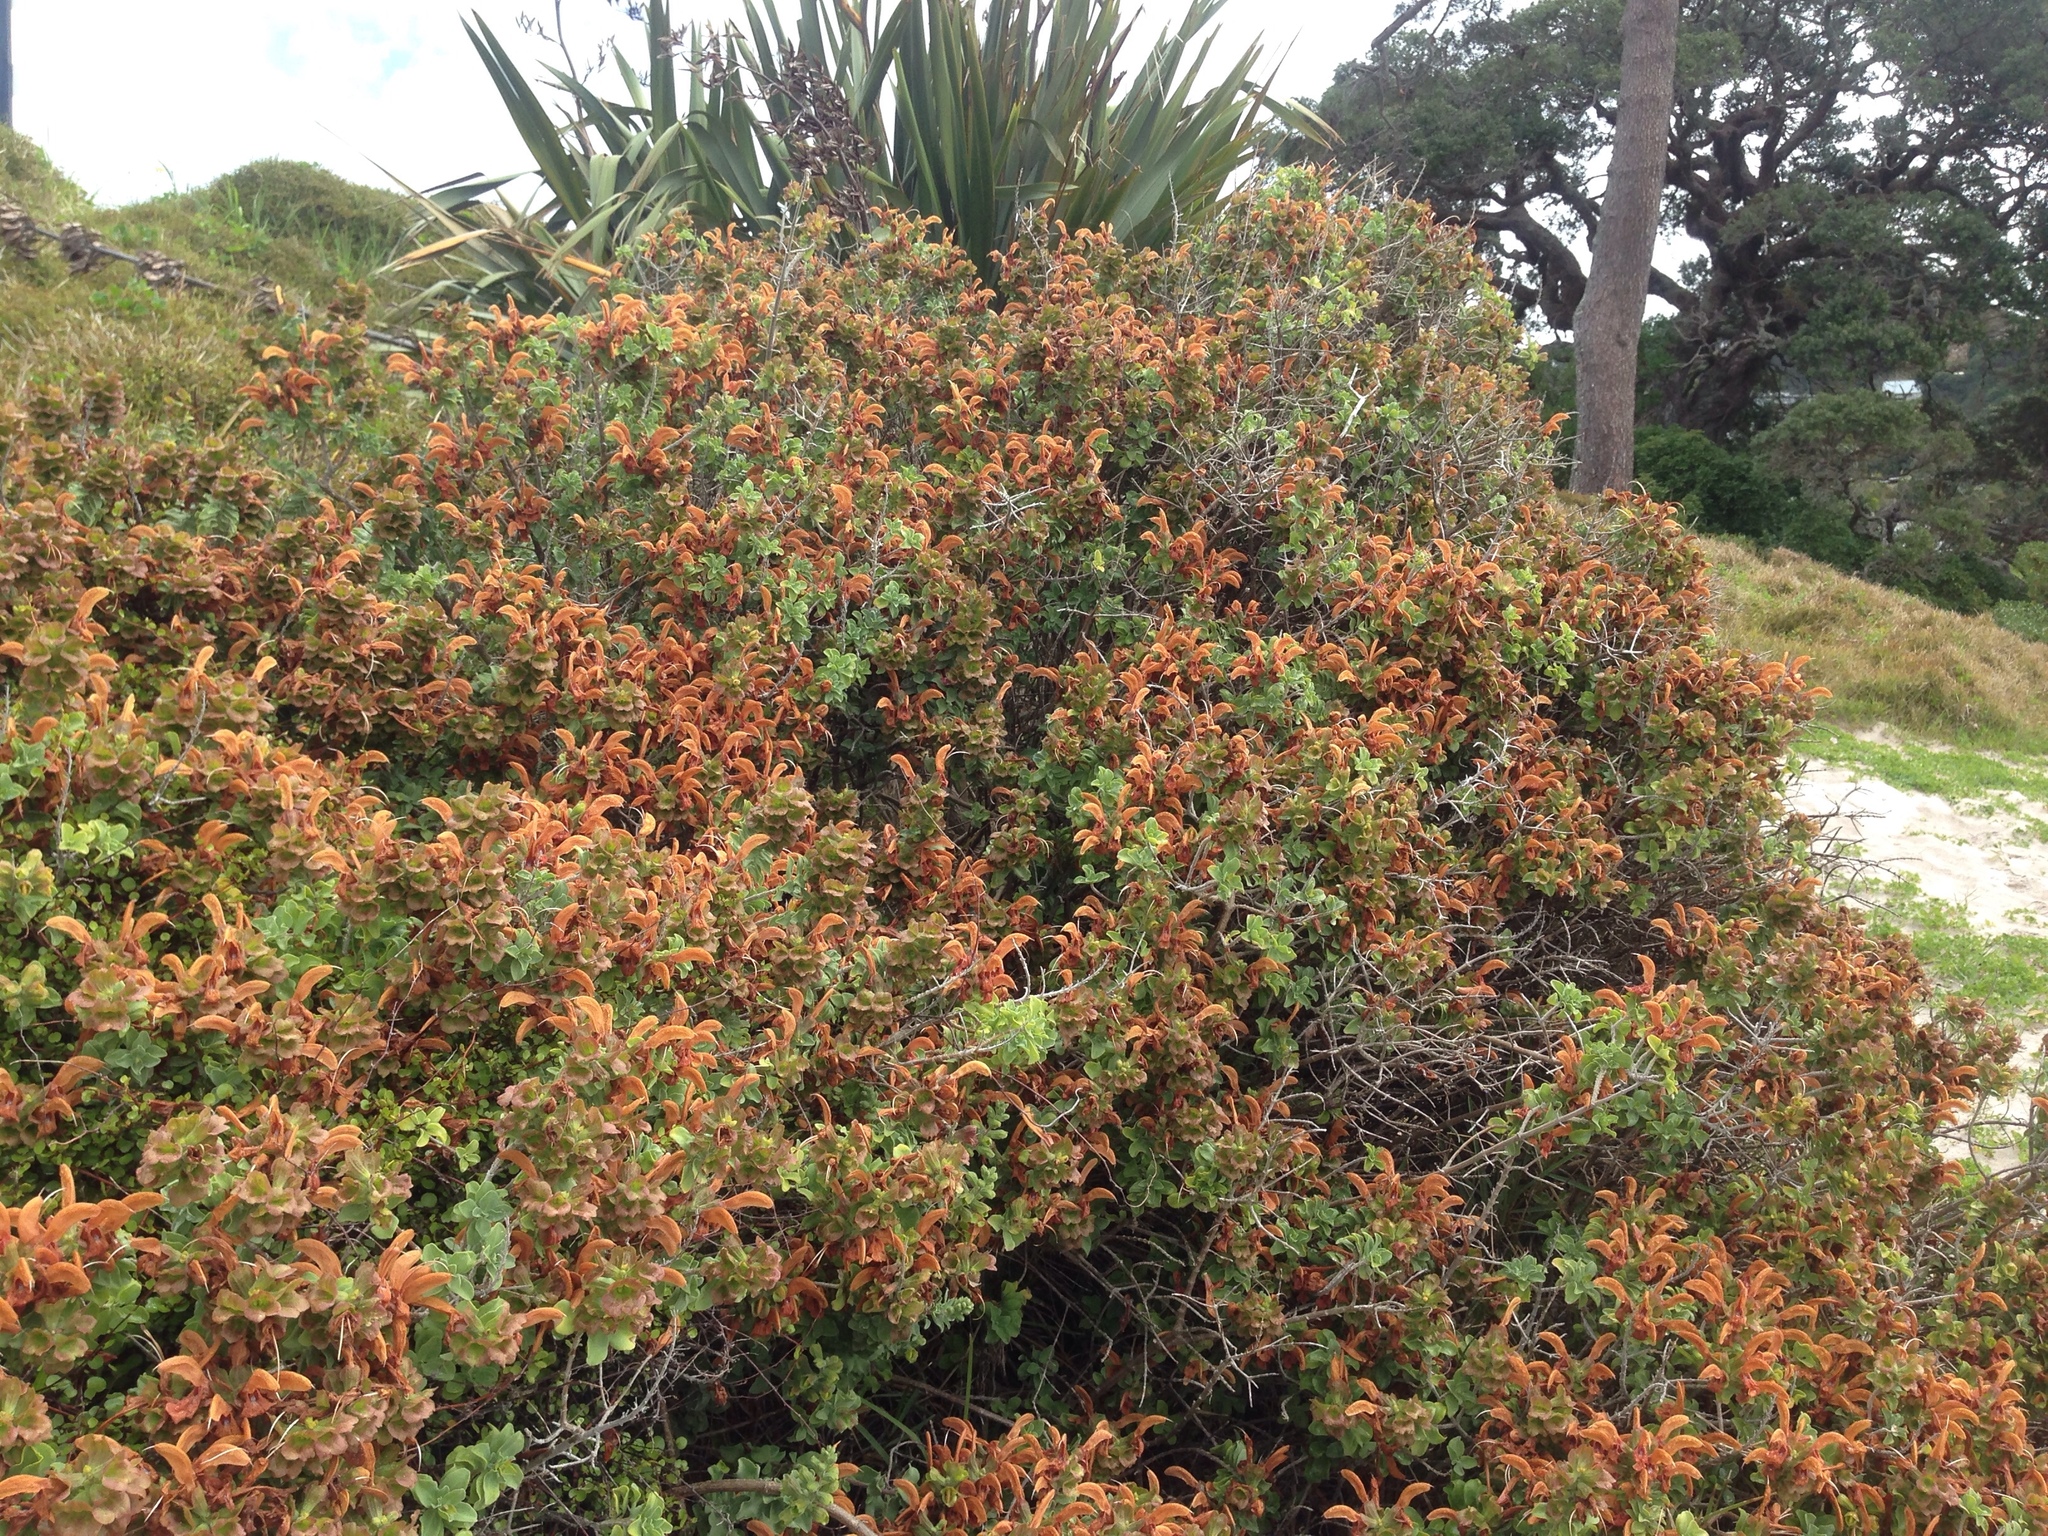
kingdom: Plantae
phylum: Tracheophyta
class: Magnoliopsida
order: Lamiales
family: Lamiaceae
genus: Salvia
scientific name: Salvia aurea
